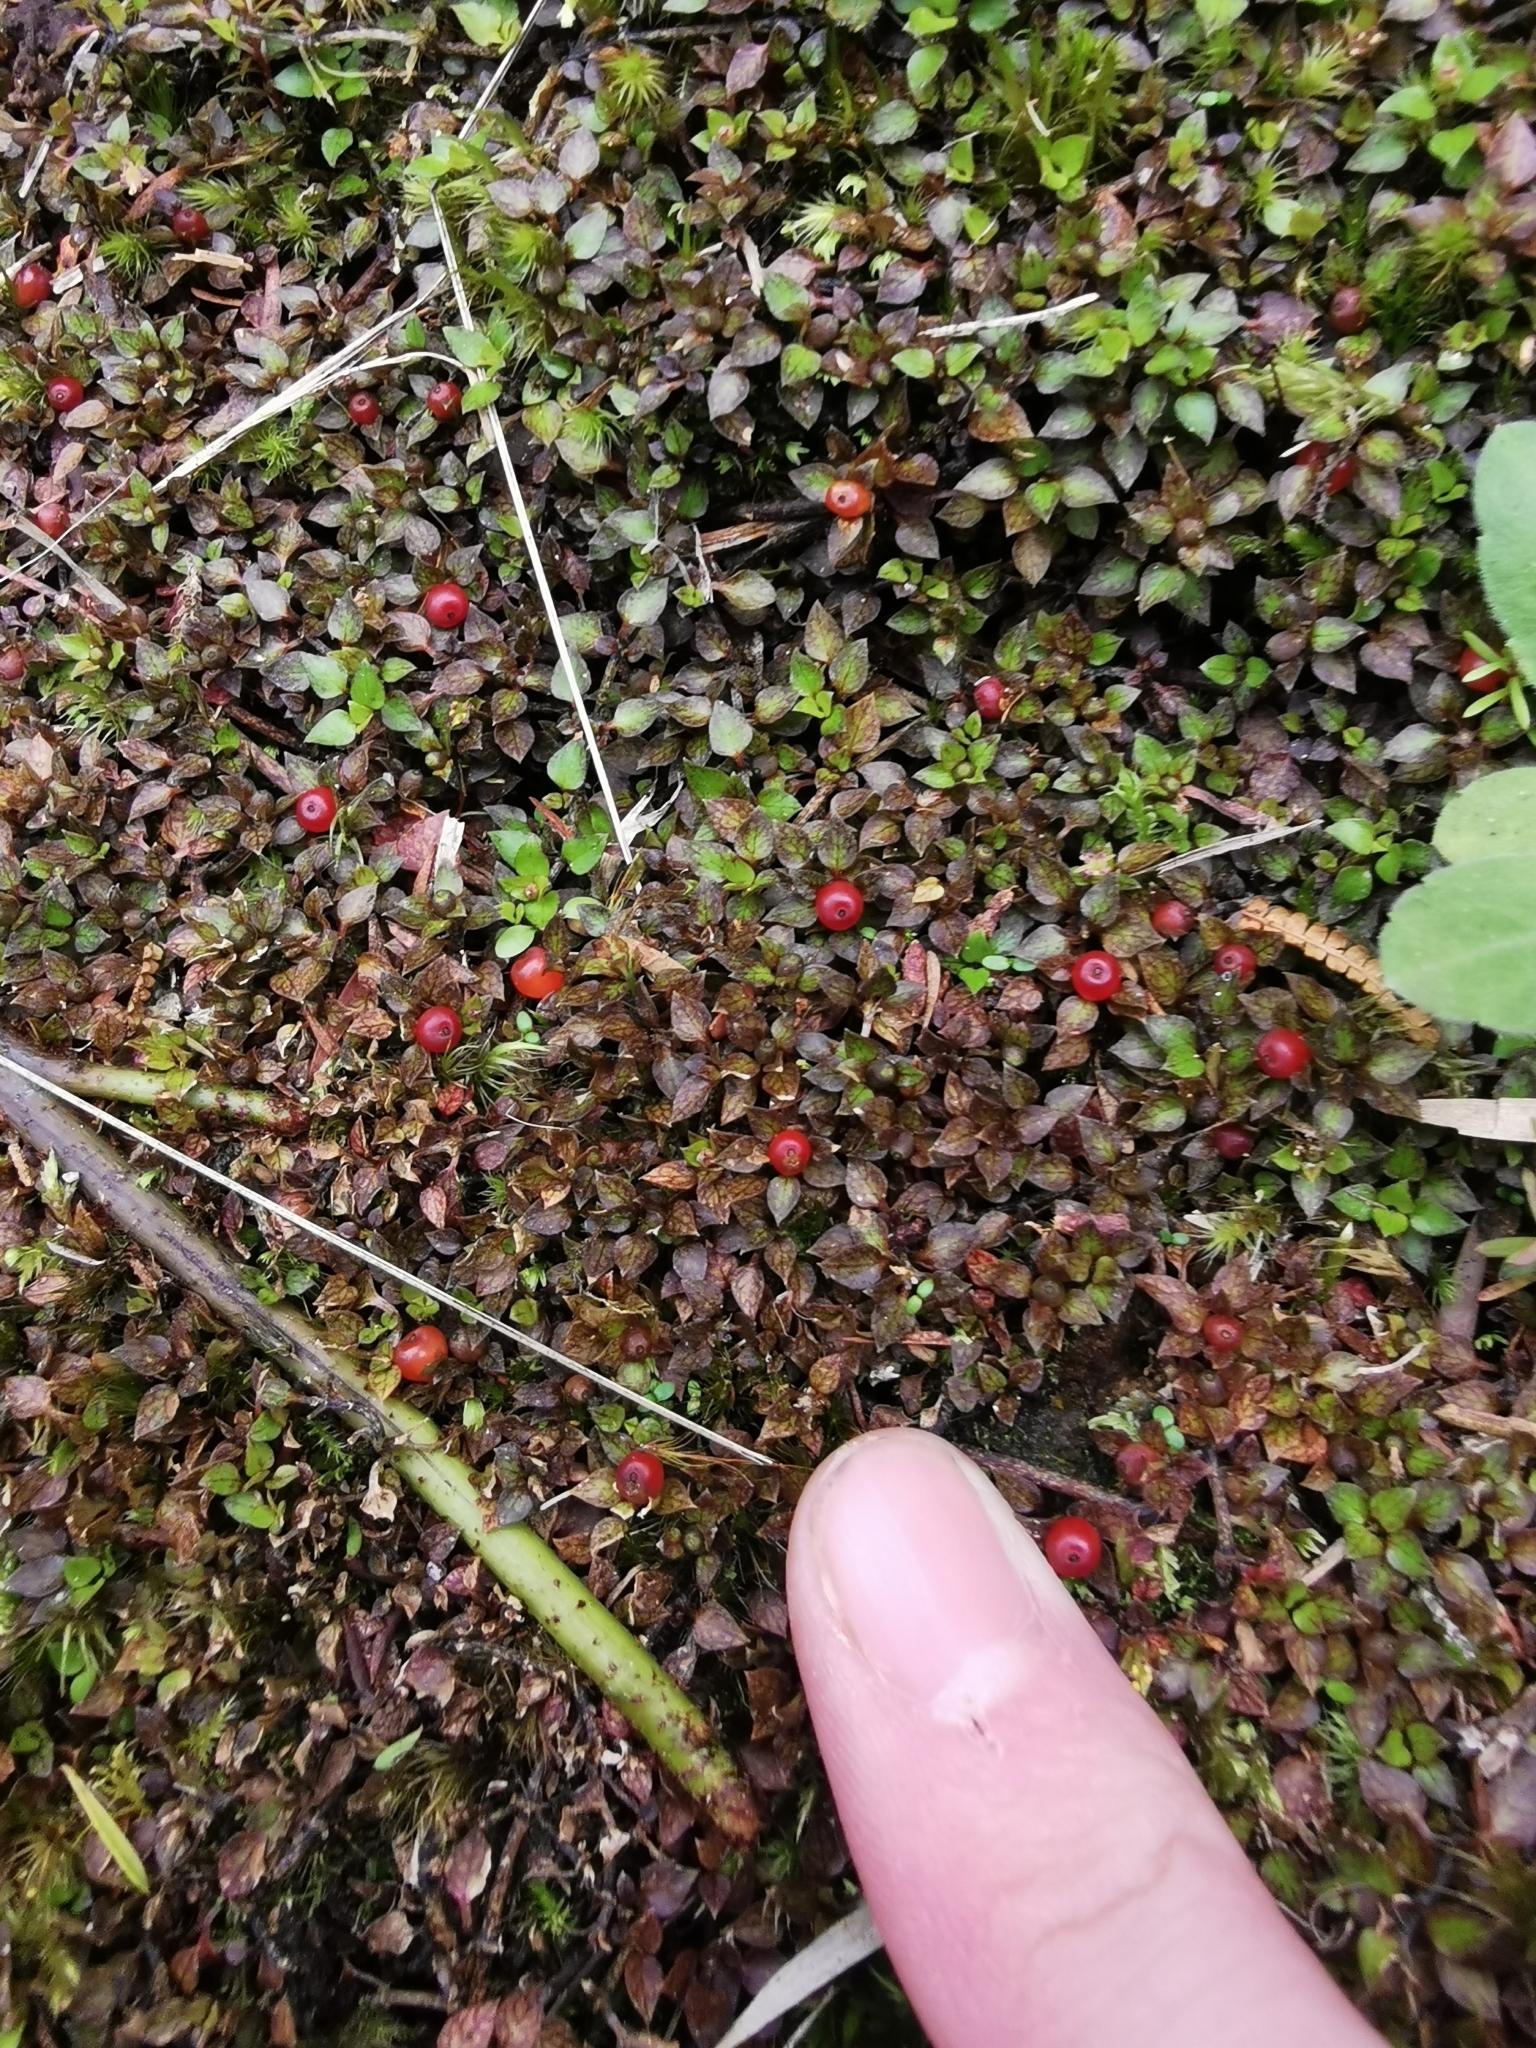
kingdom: Plantae
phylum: Tracheophyta
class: Magnoliopsida
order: Gentianales
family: Rubiaceae
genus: Nertera
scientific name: Nertera granadensis
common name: Beadplant
